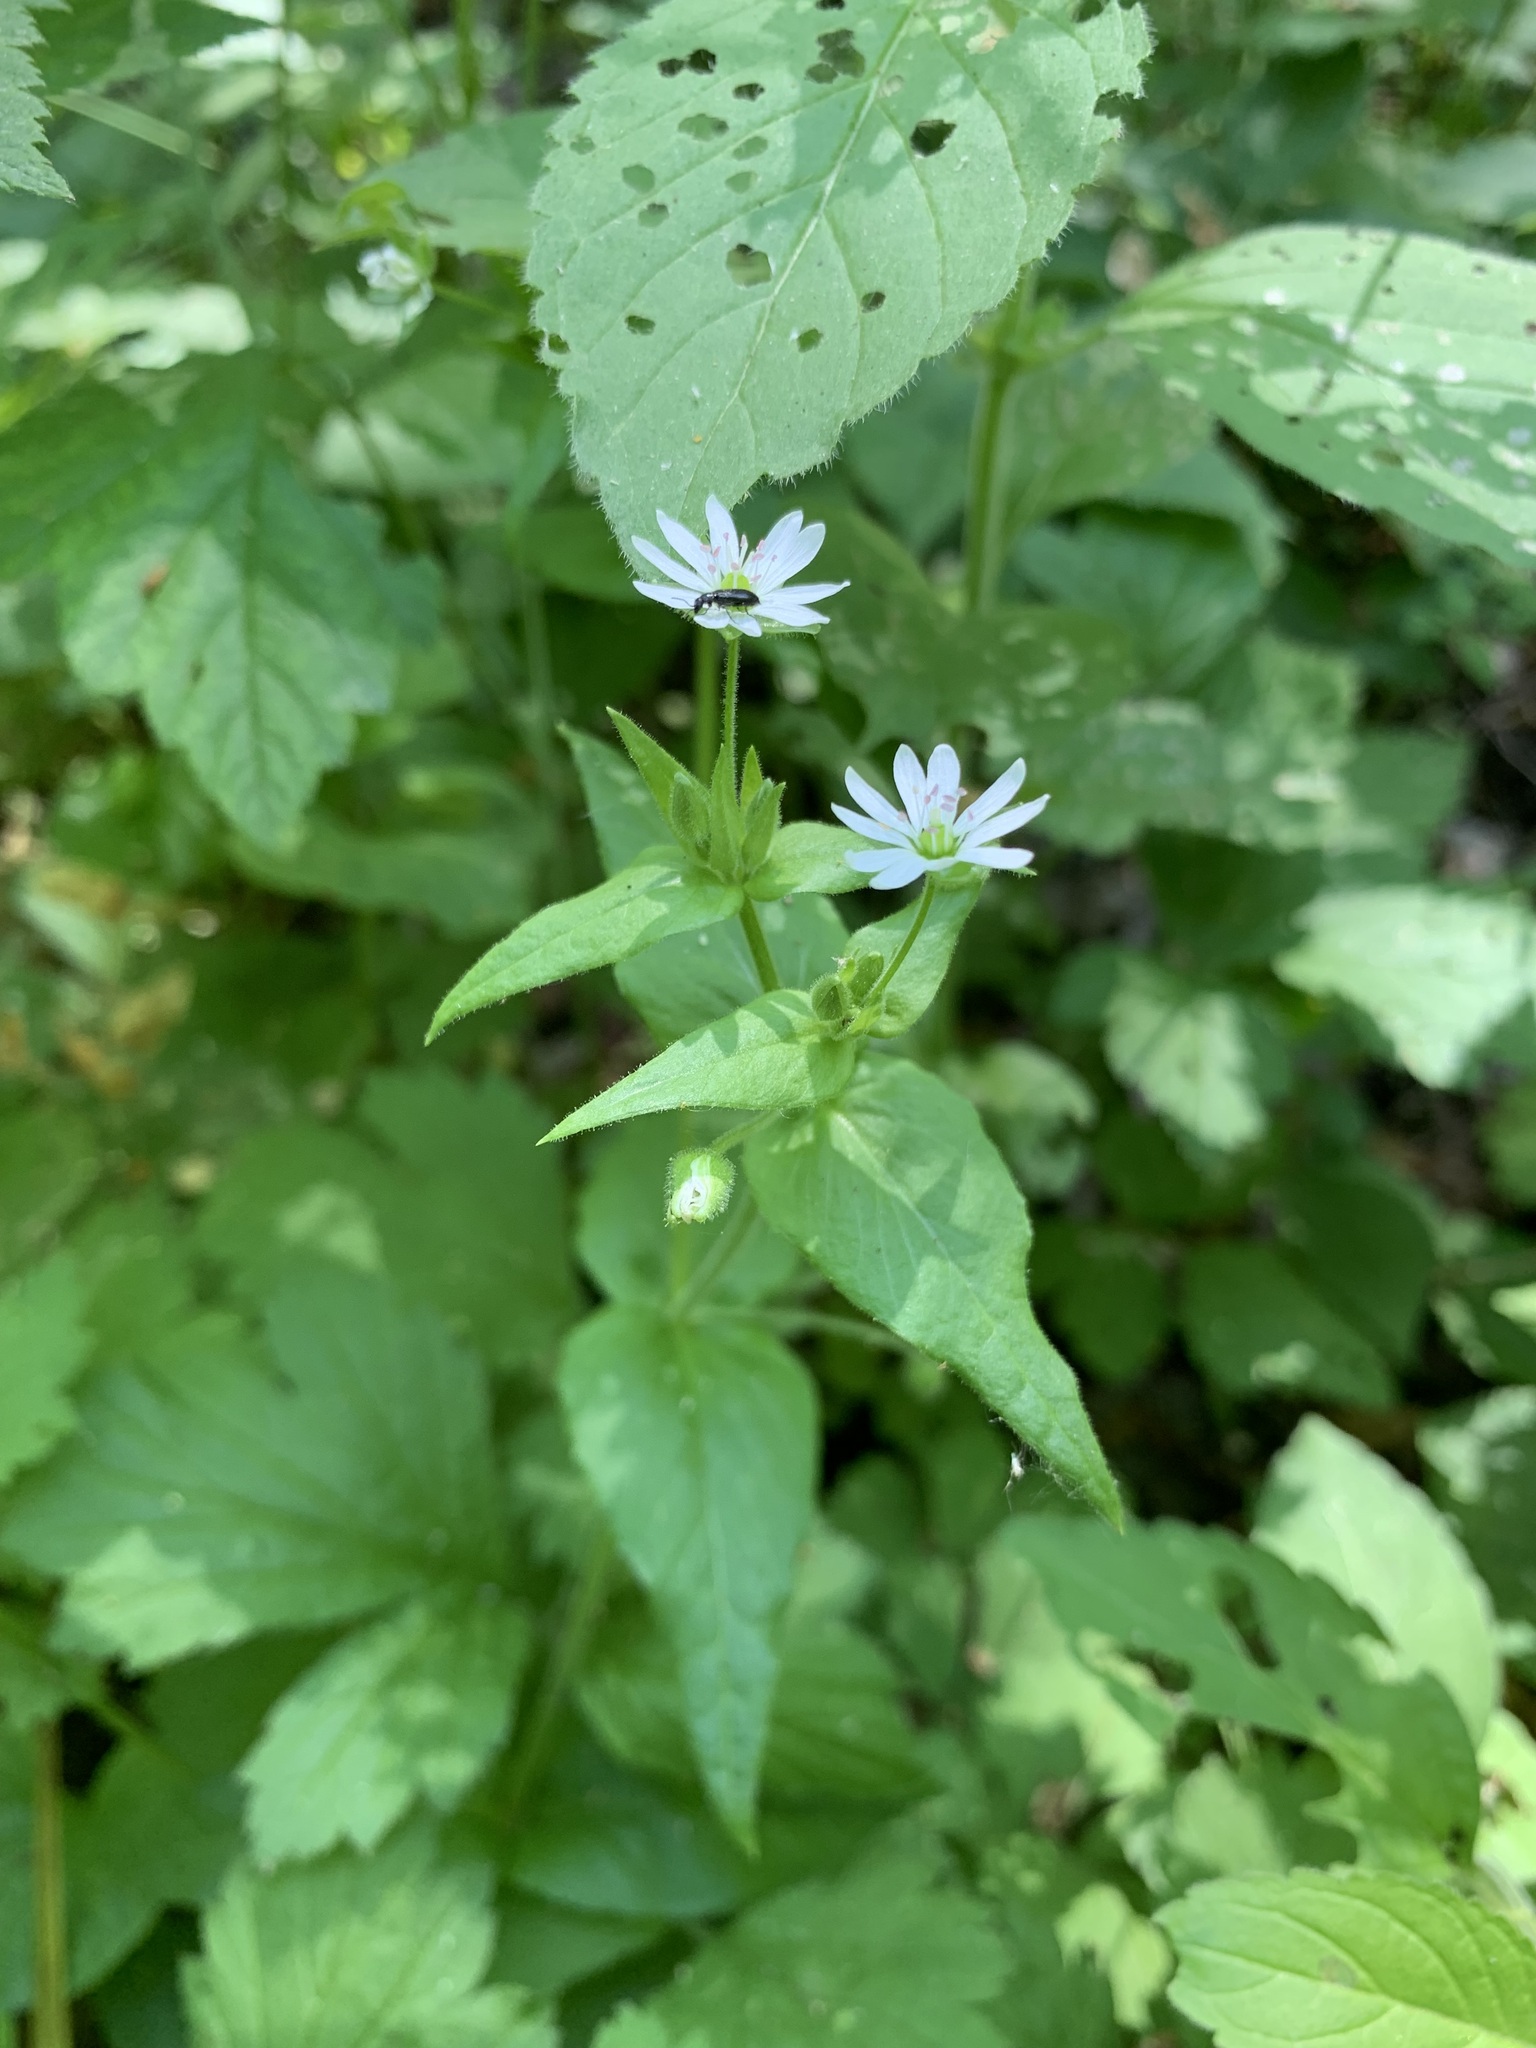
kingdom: Plantae
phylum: Tracheophyta
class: Magnoliopsida
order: Caryophyllales
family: Caryophyllaceae
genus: Stellaria
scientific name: Stellaria aquatica
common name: Water chickweed
